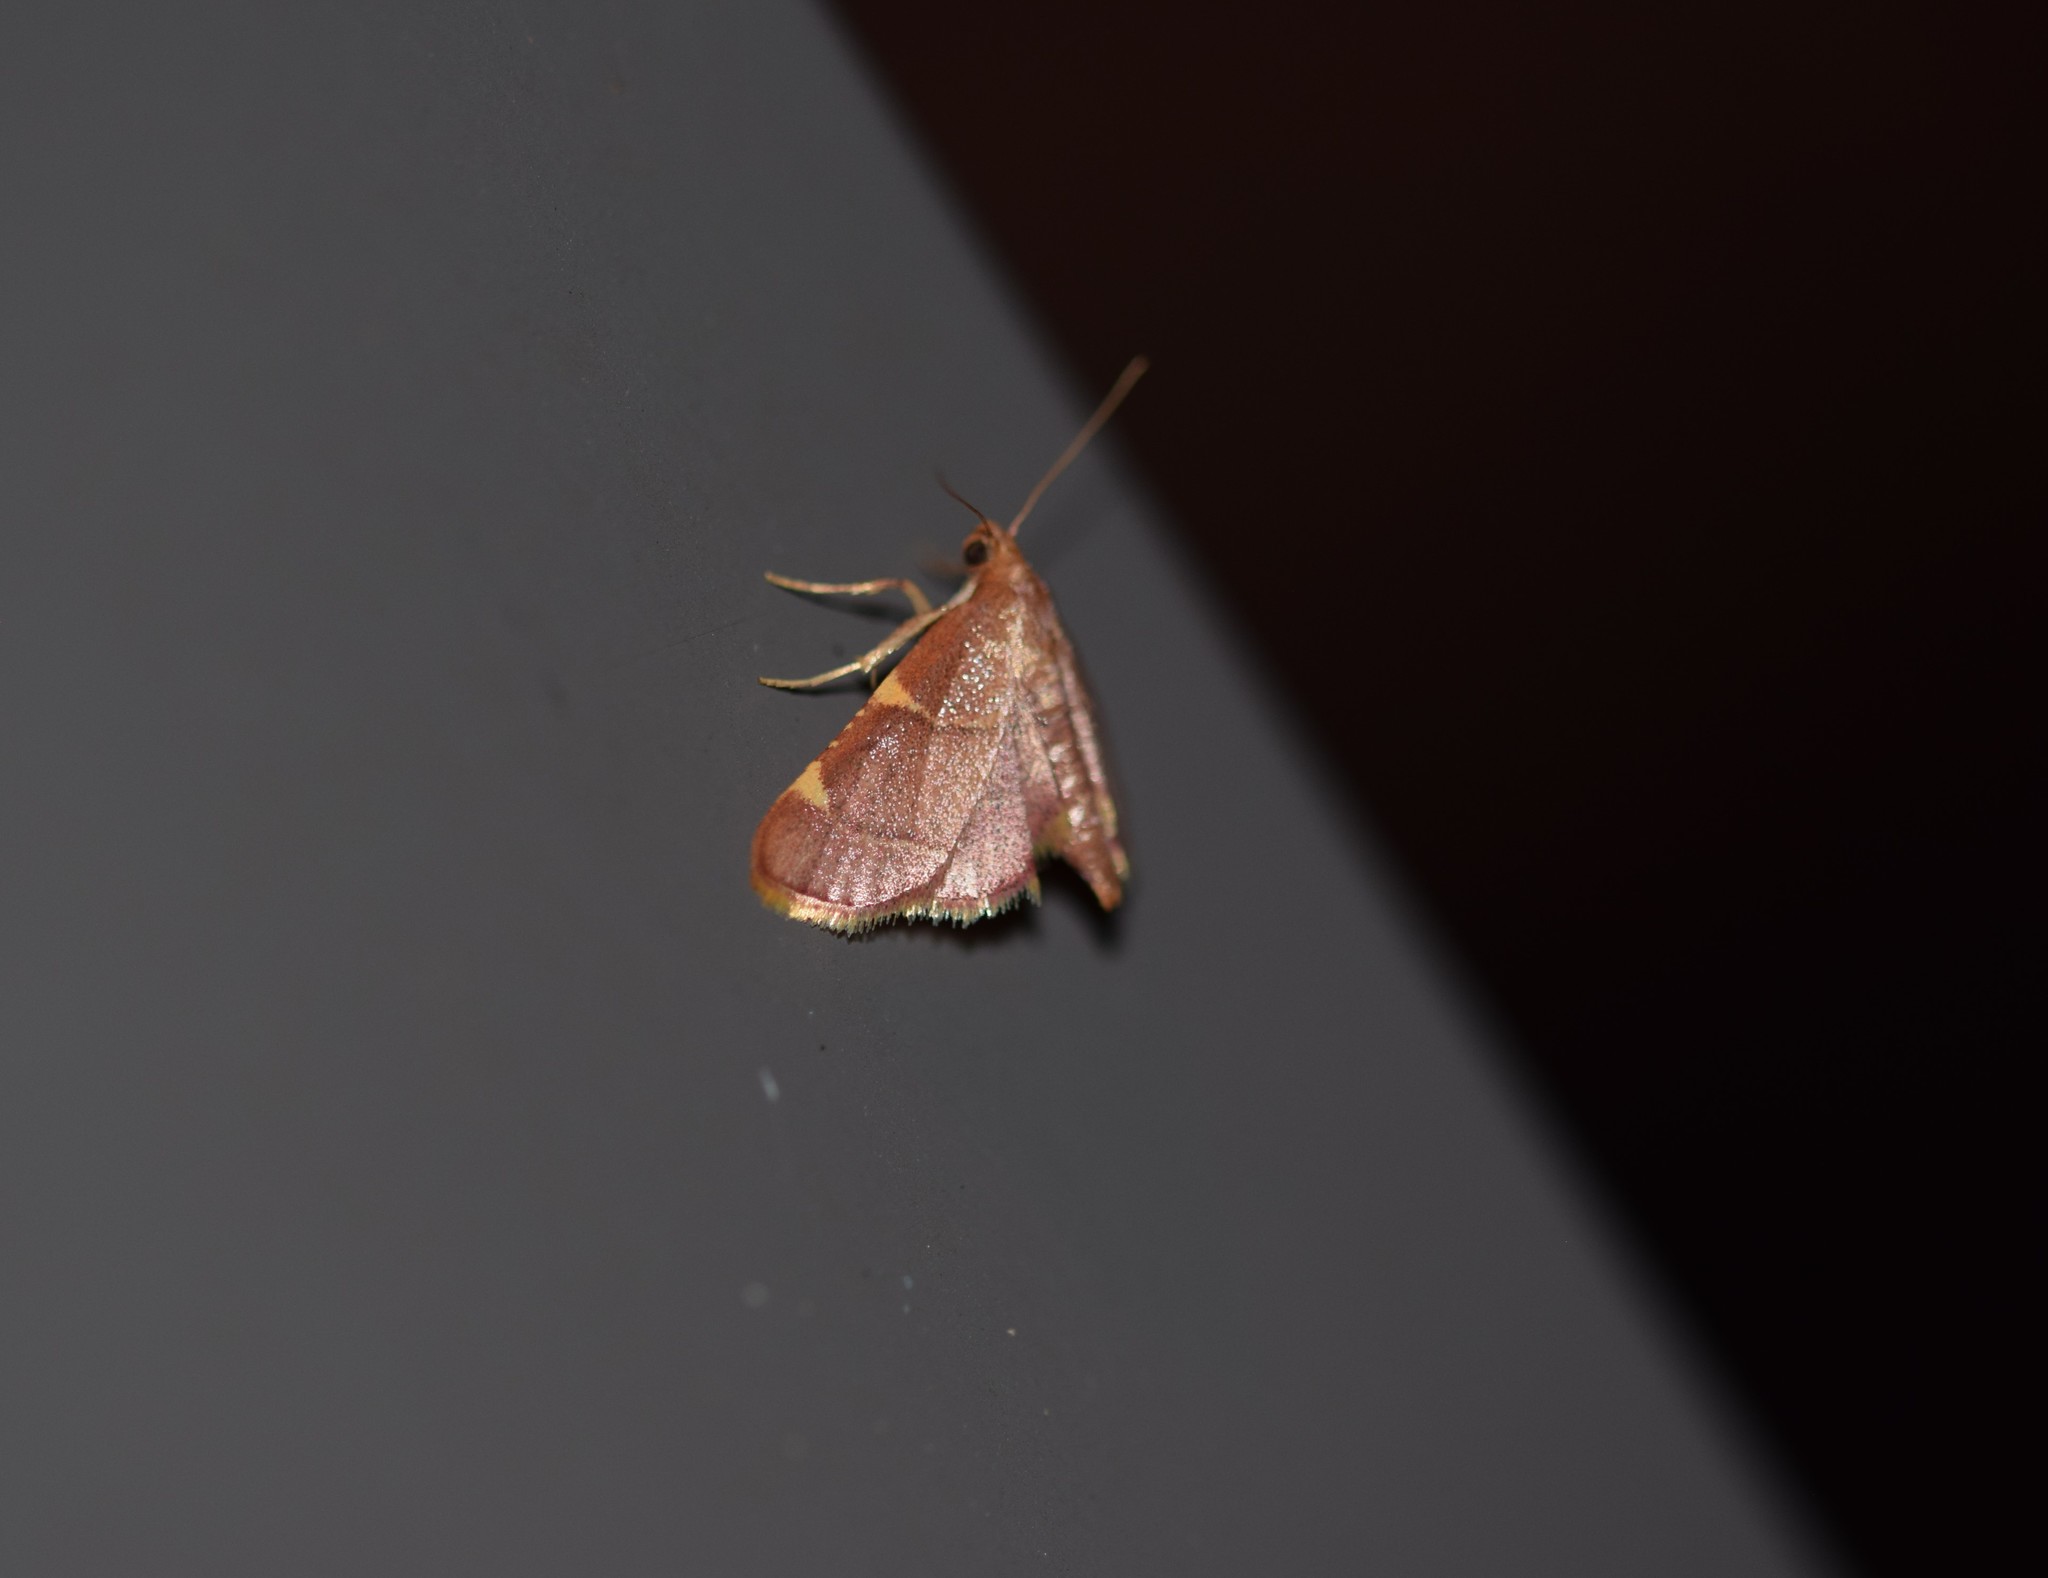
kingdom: Animalia
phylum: Arthropoda
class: Insecta
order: Lepidoptera
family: Pyralidae
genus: Hypsopygia
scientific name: Hypsopygia olinalis
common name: Yellow-fringed dolichomia moth
